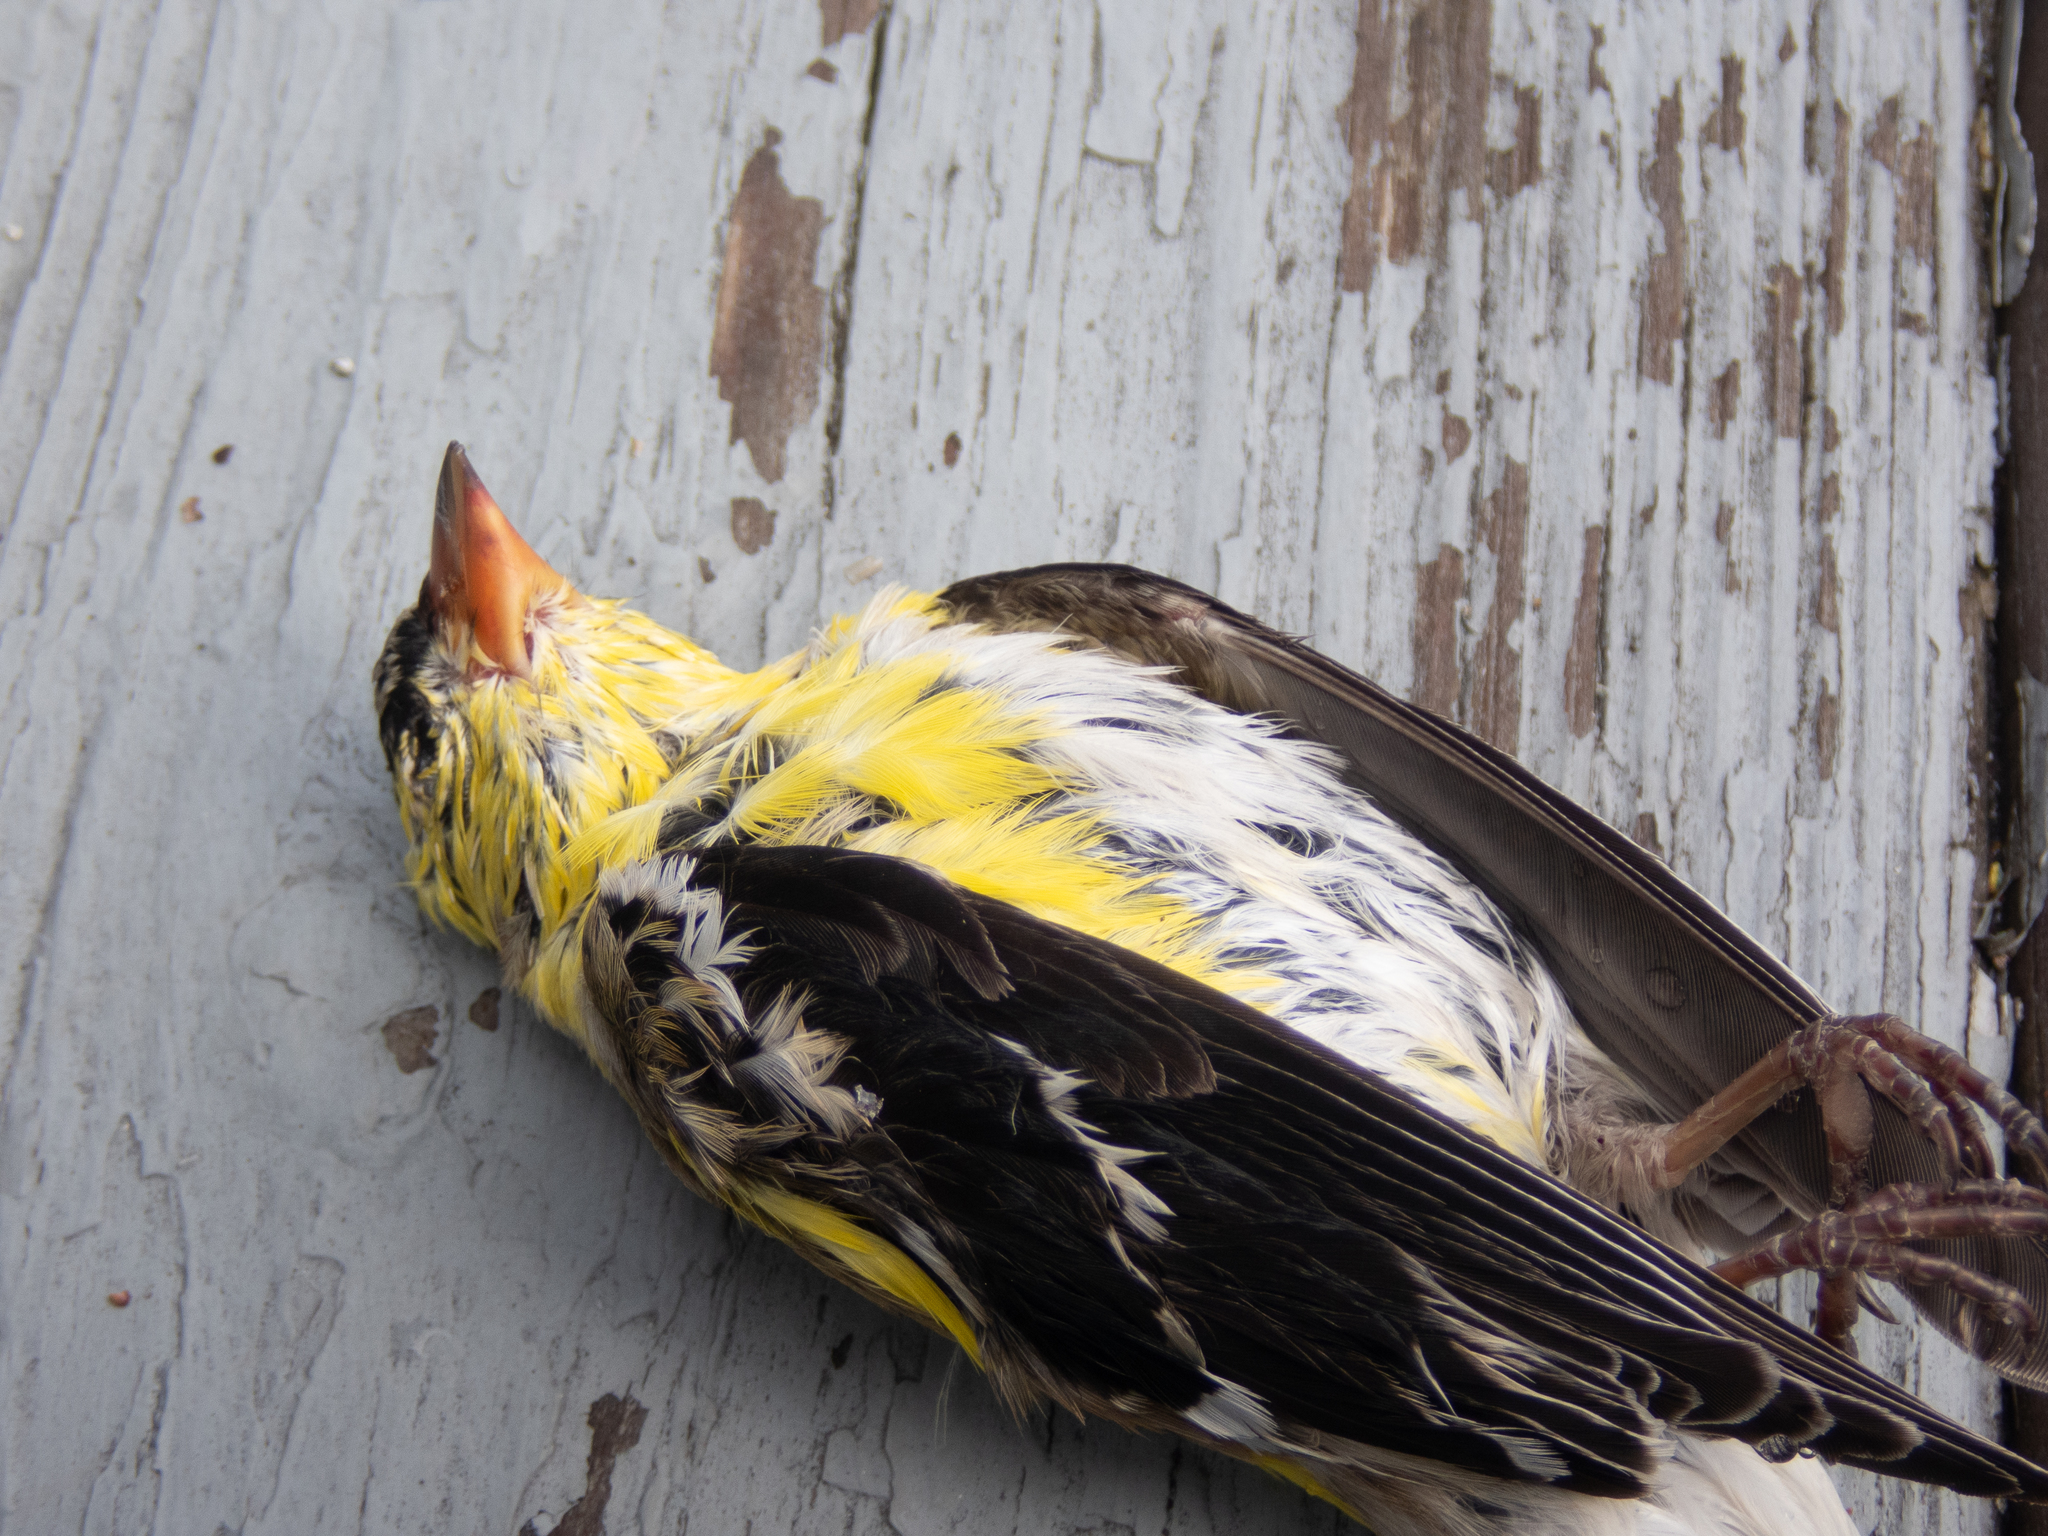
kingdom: Animalia
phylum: Chordata
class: Aves
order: Passeriformes
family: Fringillidae
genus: Spinus
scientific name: Spinus tristis
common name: American goldfinch
